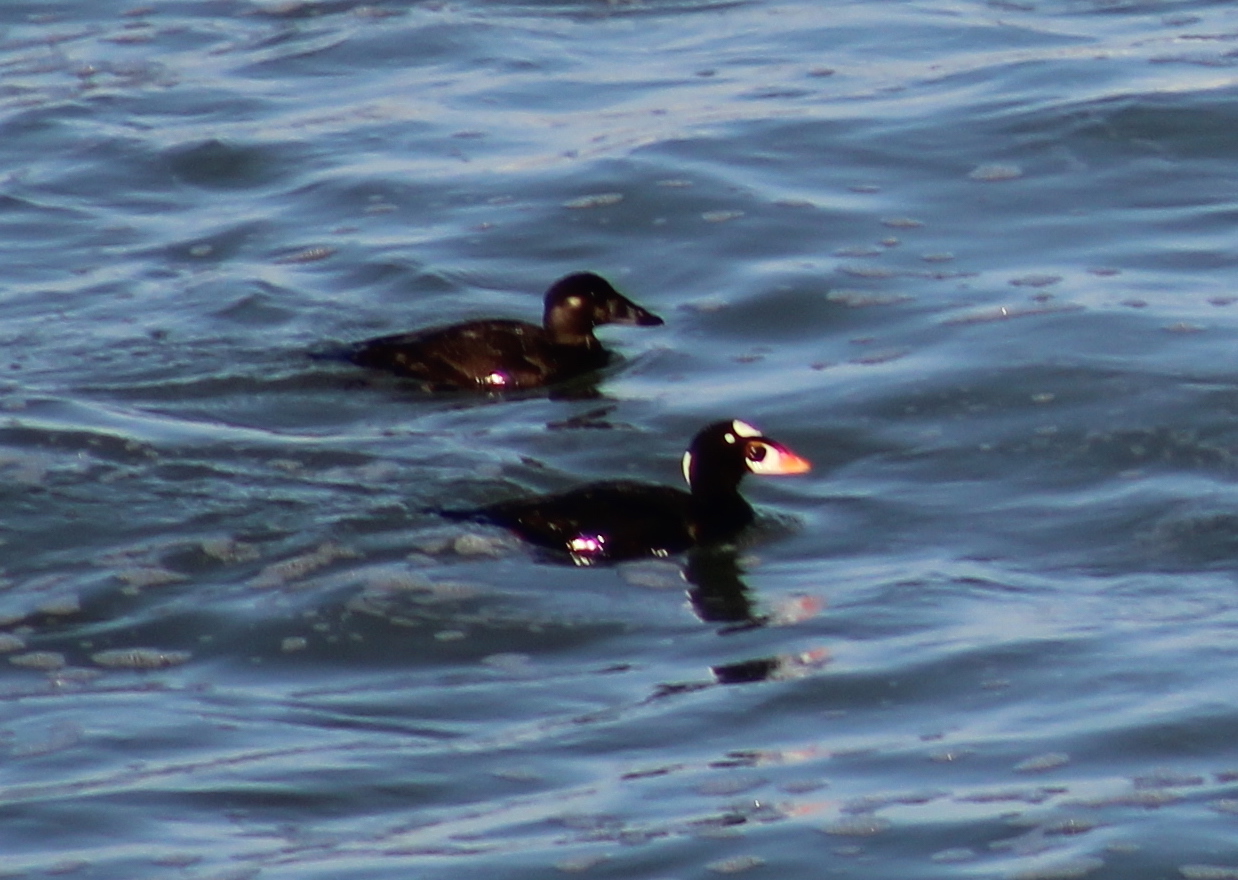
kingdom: Animalia
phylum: Chordata
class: Aves
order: Anseriformes
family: Anatidae
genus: Melanitta
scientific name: Melanitta perspicillata
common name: Surf scoter
